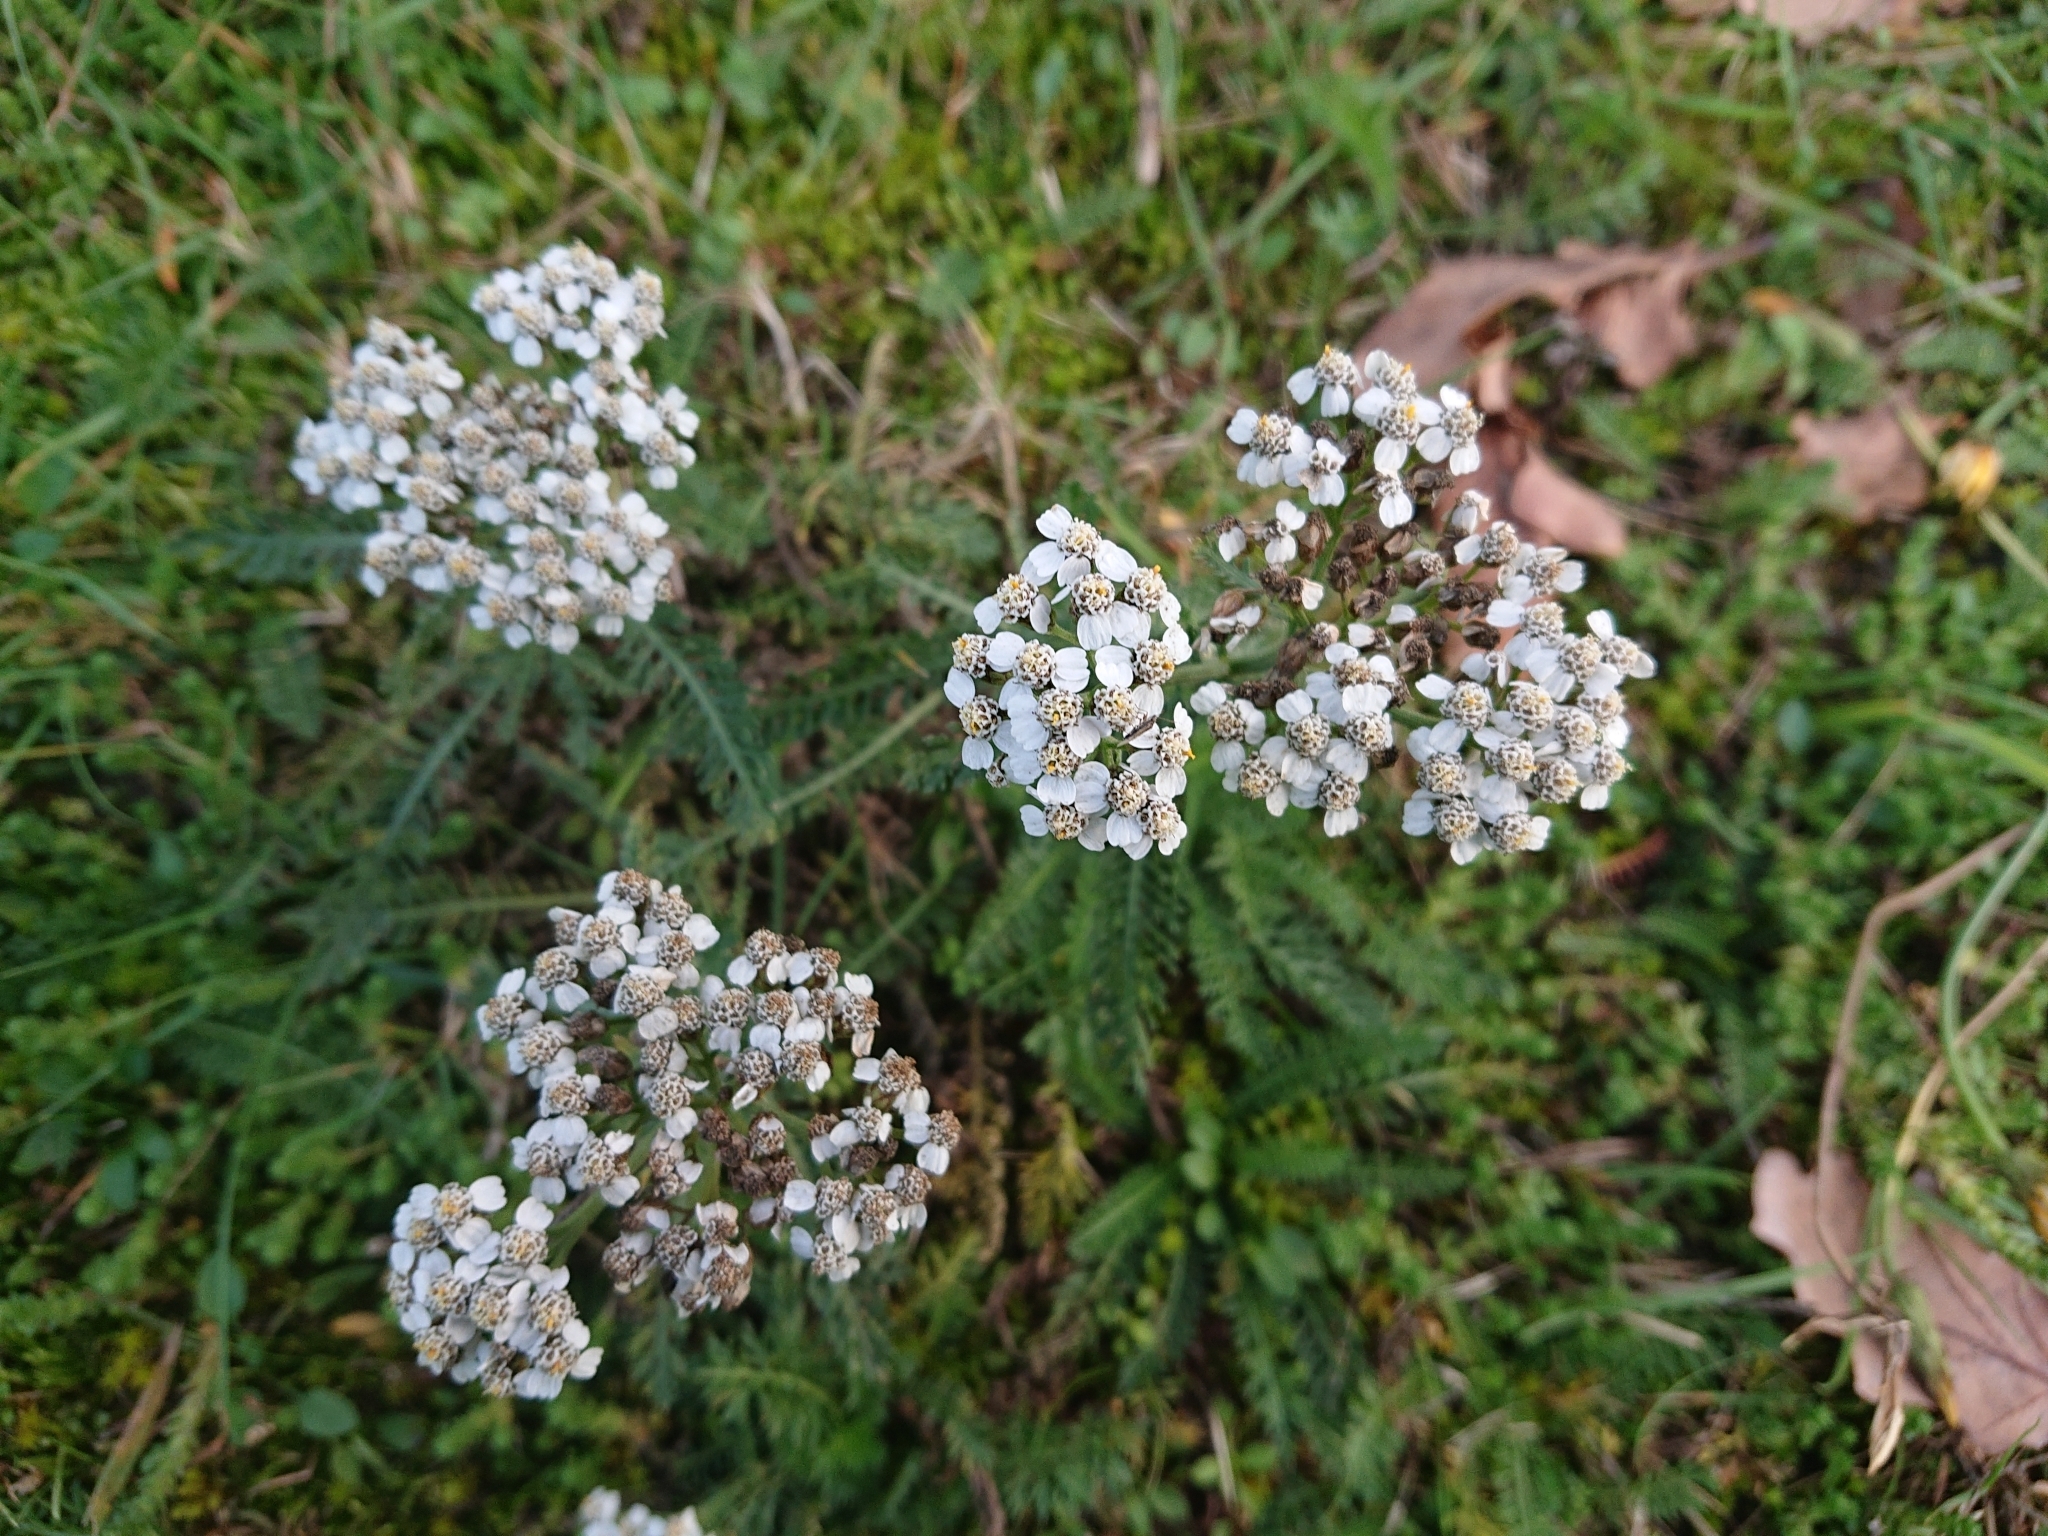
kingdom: Plantae
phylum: Tracheophyta
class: Magnoliopsida
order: Asterales
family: Asteraceae
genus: Achillea
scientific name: Achillea millefolium
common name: Yarrow
